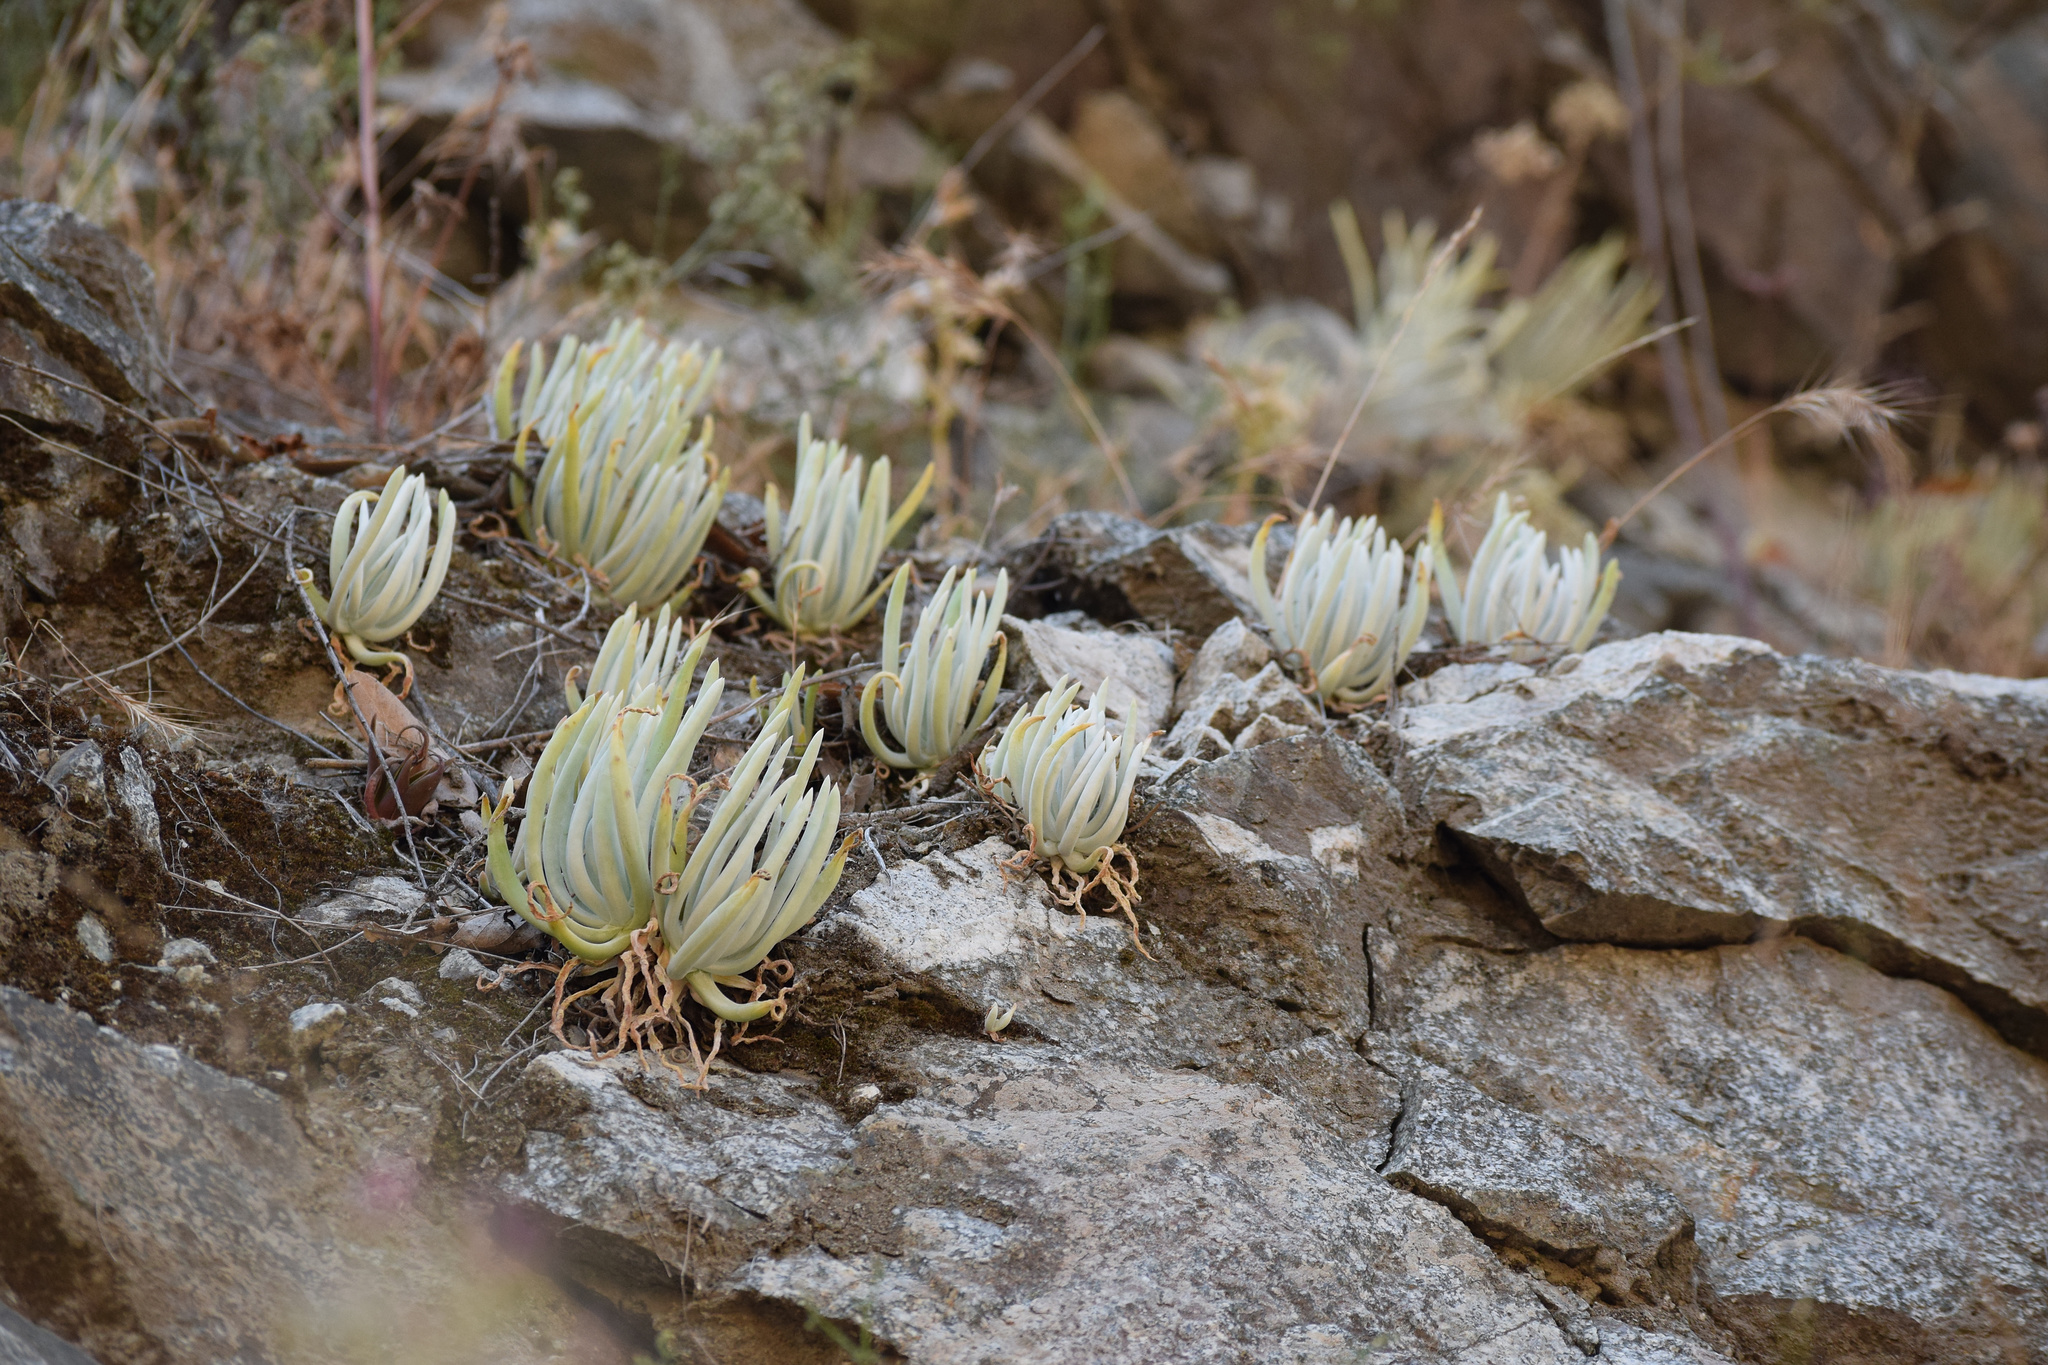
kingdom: Plantae
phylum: Tracheophyta
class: Magnoliopsida
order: Saxifragales
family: Crassulaceae
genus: Dudleya
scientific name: Dudleya densiflora
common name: San gabriel mountains dudleya
